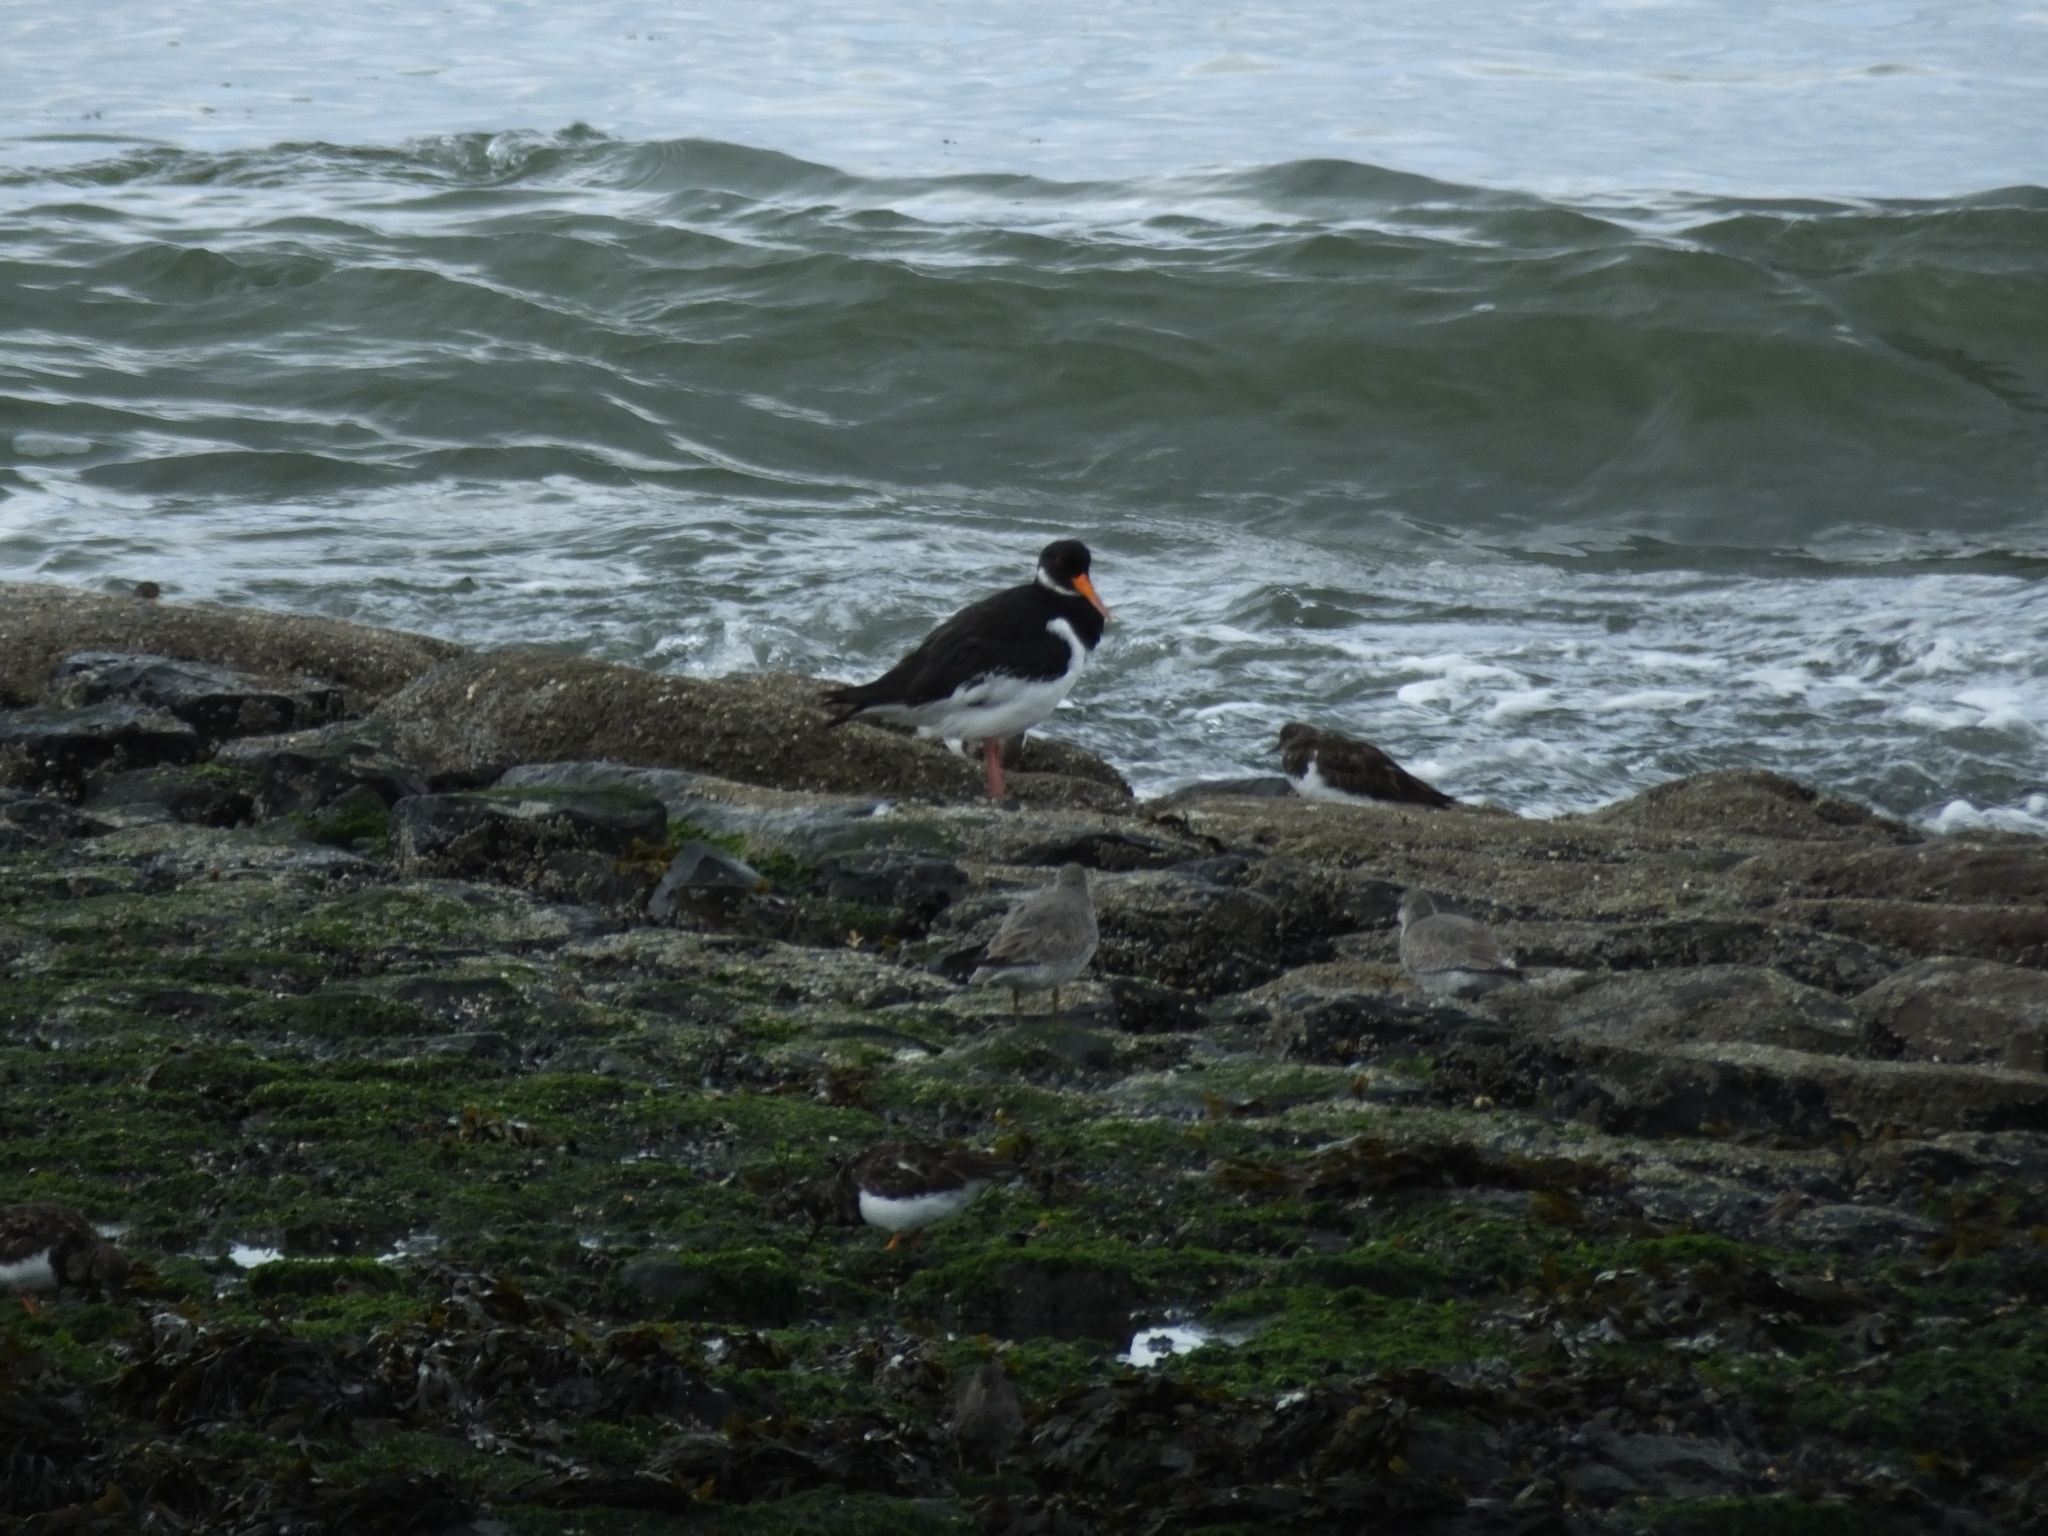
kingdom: Animalia
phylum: Chordata
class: Aves
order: Charadriiformes
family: Haematopodidae
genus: Haematopus
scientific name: Haematopus ostralegus
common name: Eurasian oystercatcher
